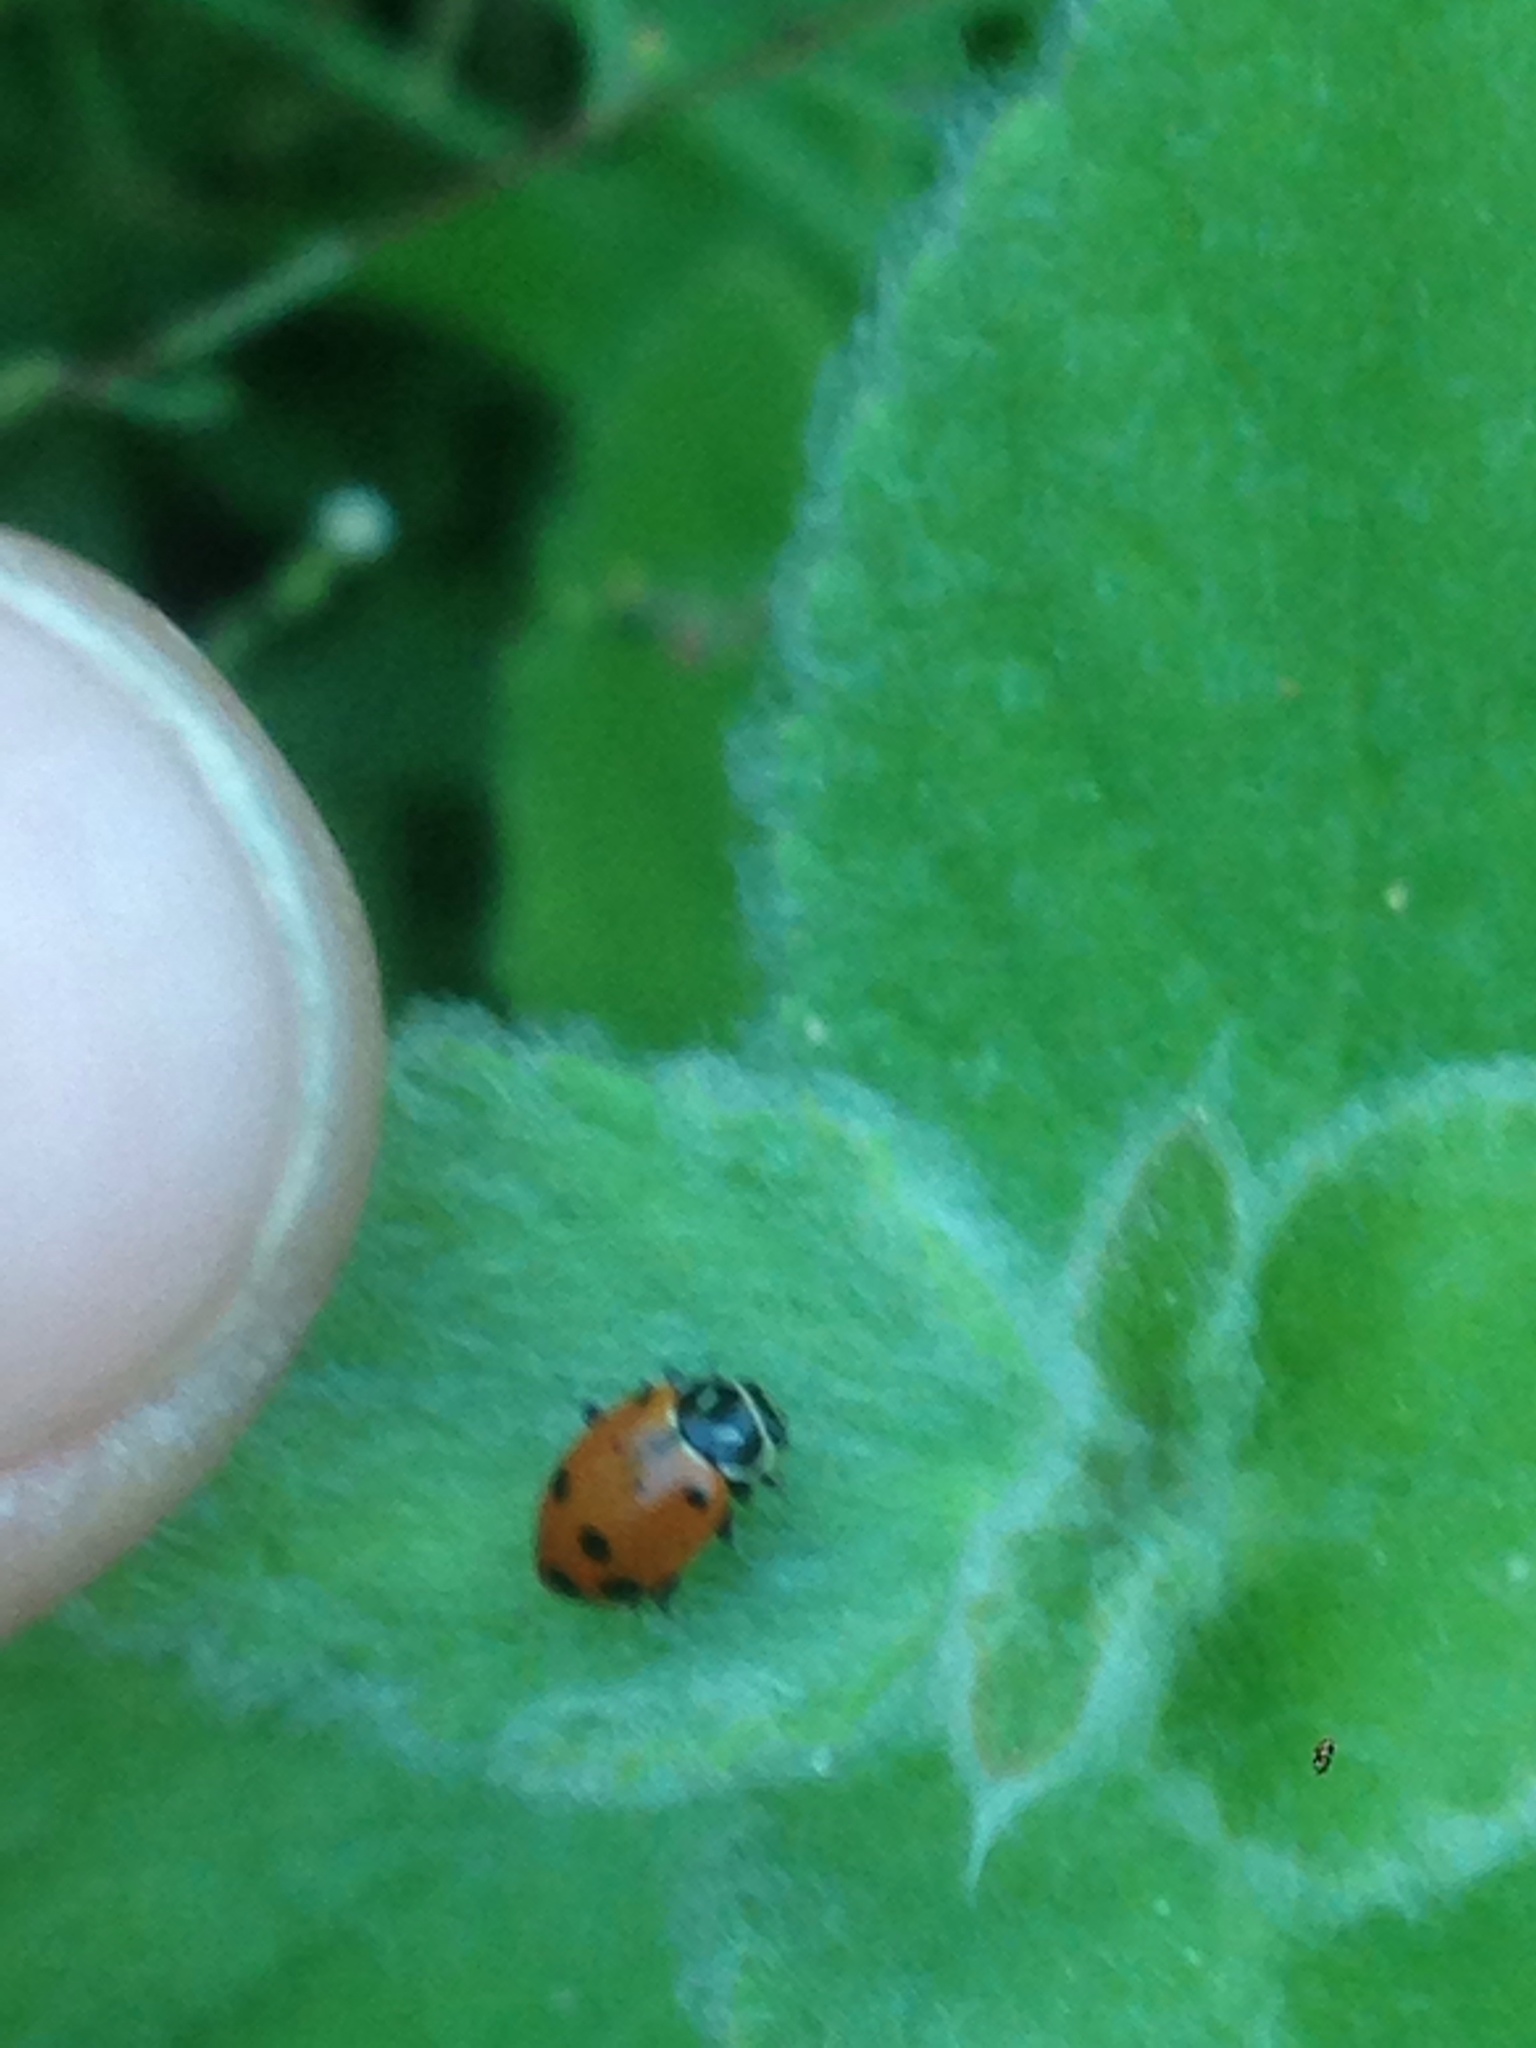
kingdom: Animalia
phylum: Arthropoda
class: Insecta
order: Coleoptera
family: Coccinellidae
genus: Hippodamia
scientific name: Hippodamia convergens
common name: Convergent lady beetle
